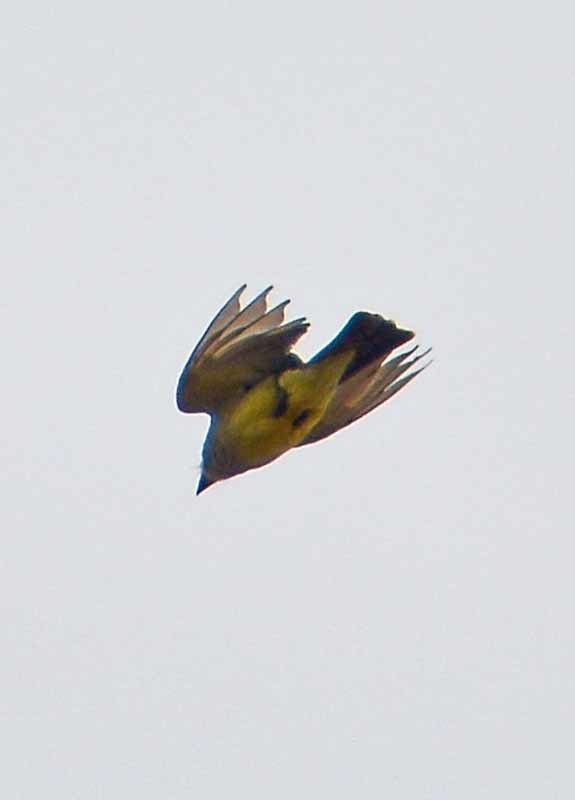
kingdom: Animalia
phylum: Chordata
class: Aves
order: Passeriformes
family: Tyrannidae
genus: Tyrannus
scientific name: Tyrannus vociferans
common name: Cassin's kingbird
